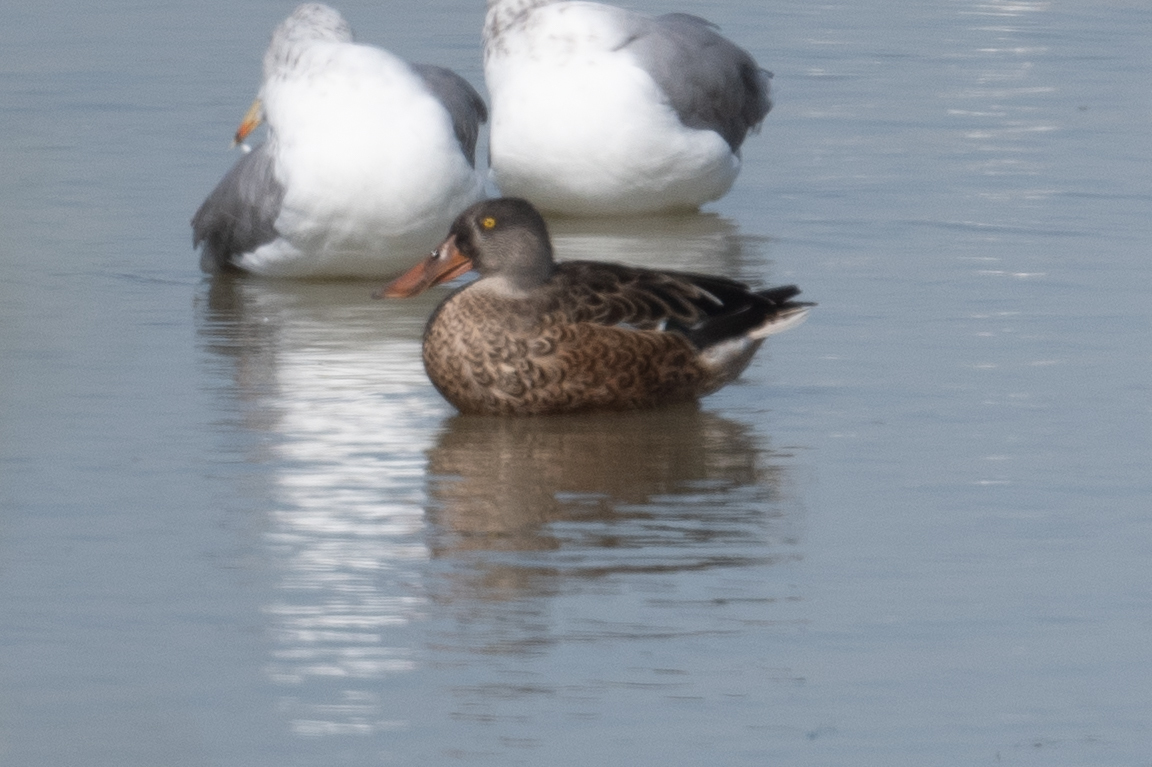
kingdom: Animalia
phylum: Chordata
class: Aves
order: Anseriformes
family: Anatidae
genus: Spatula
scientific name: Spatula clypeata
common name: Northern shoveler
